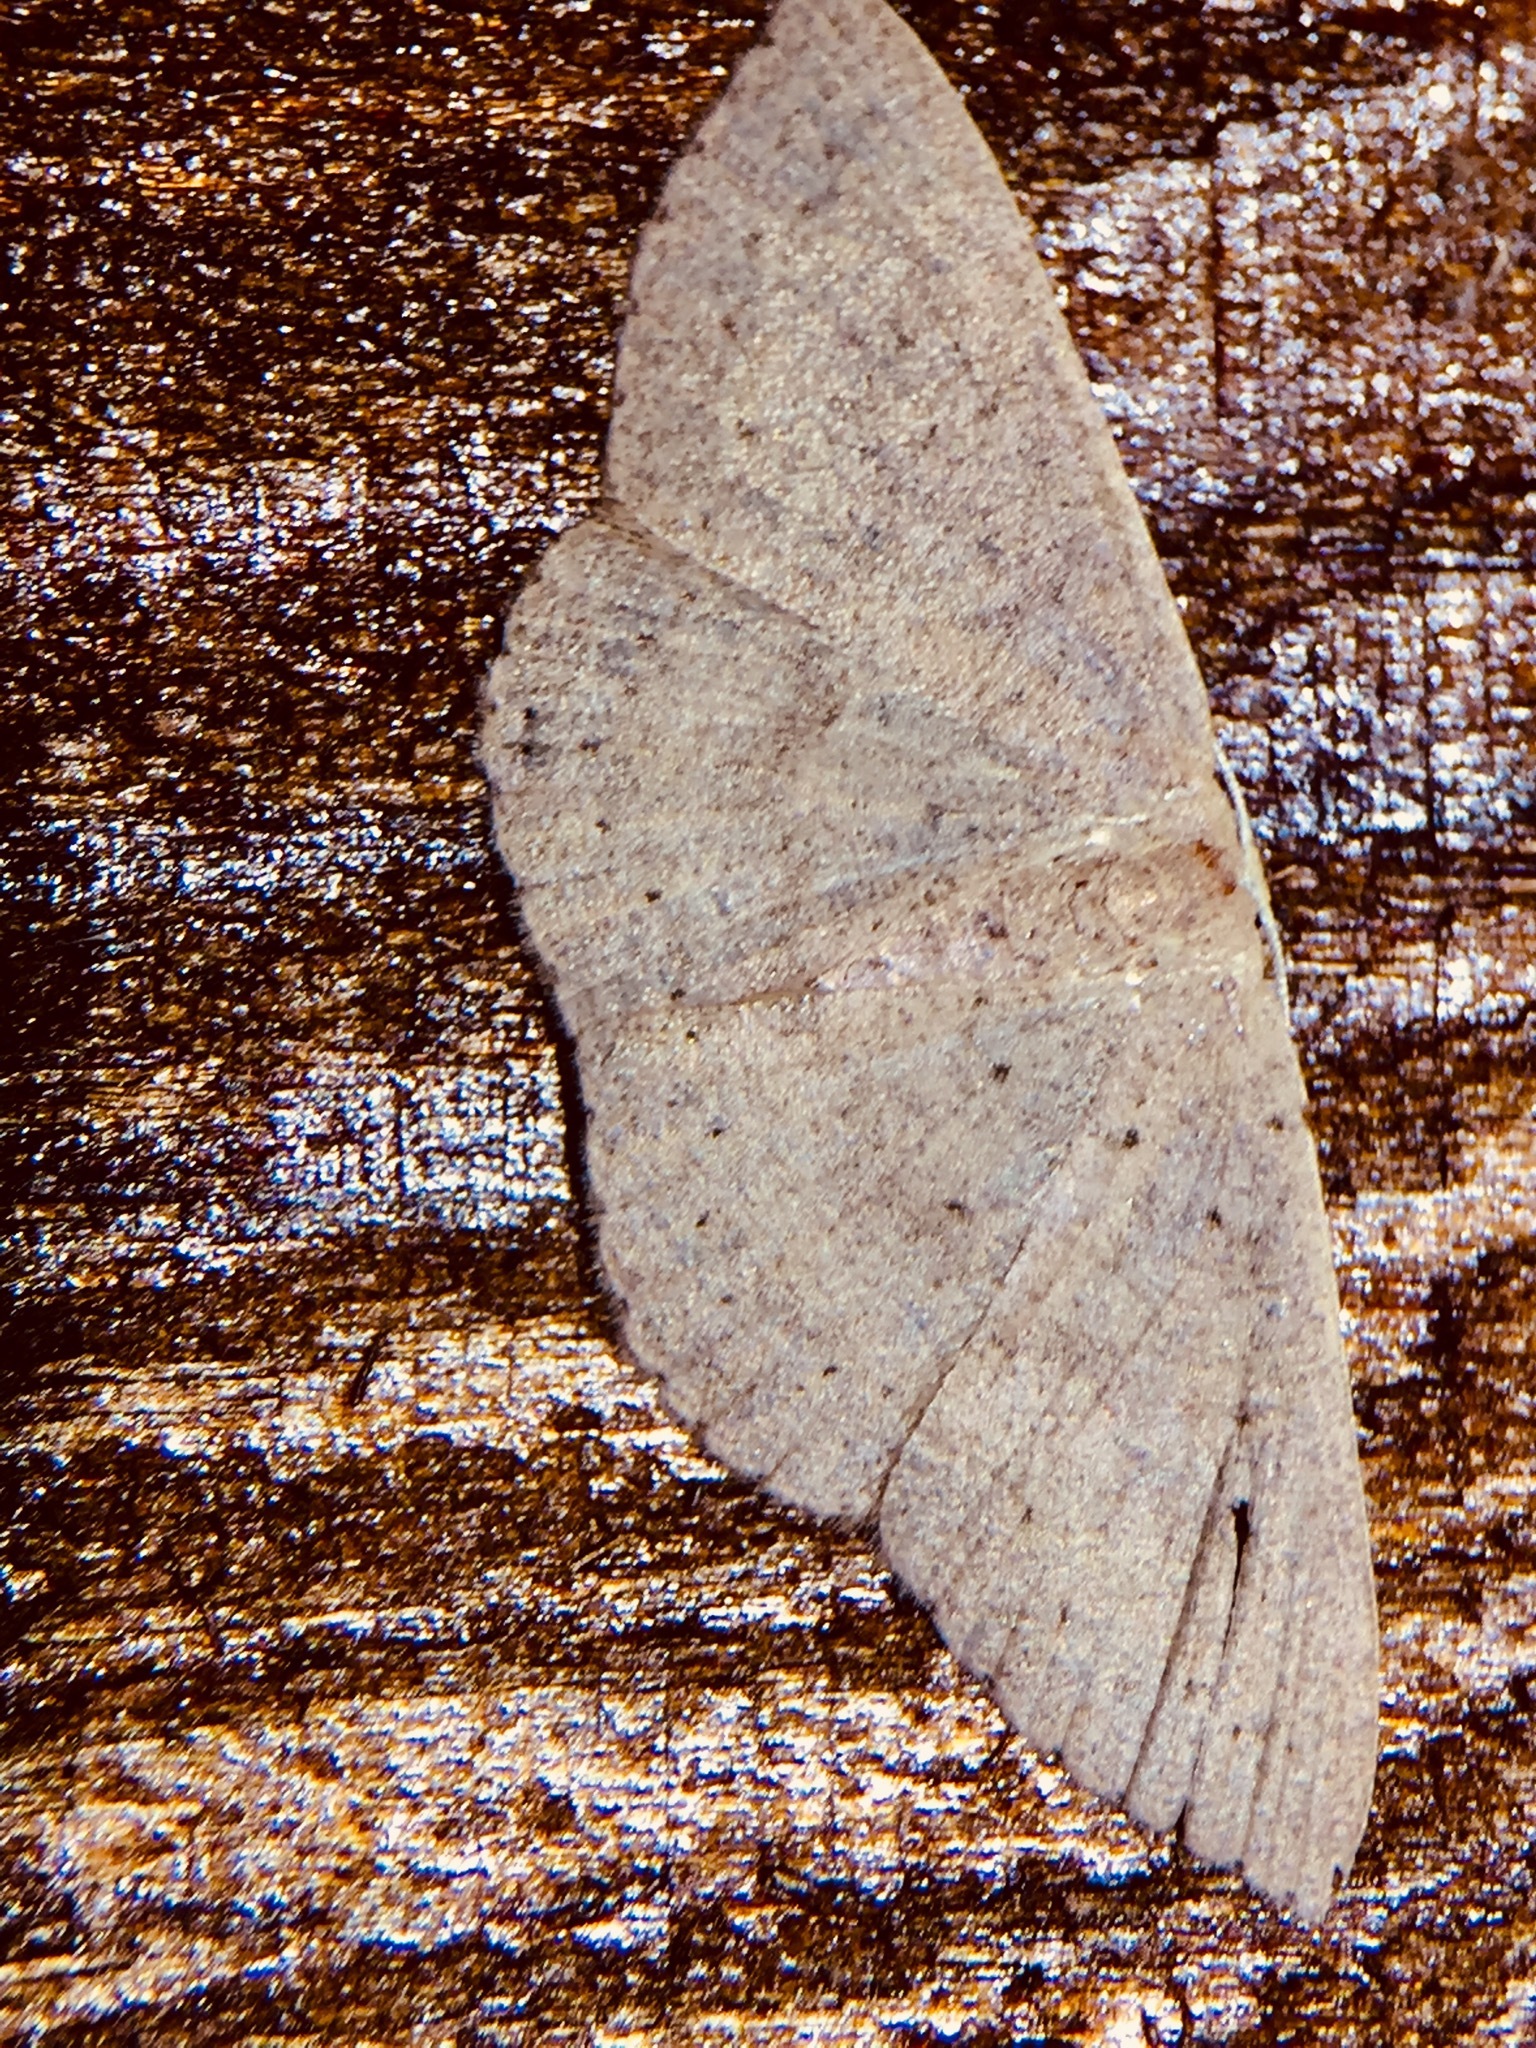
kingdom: Animalia
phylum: Arthropoda
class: Insecta
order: Lepidoptera
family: Geometridae
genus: Cyclophora
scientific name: Cyclophora obstataria
